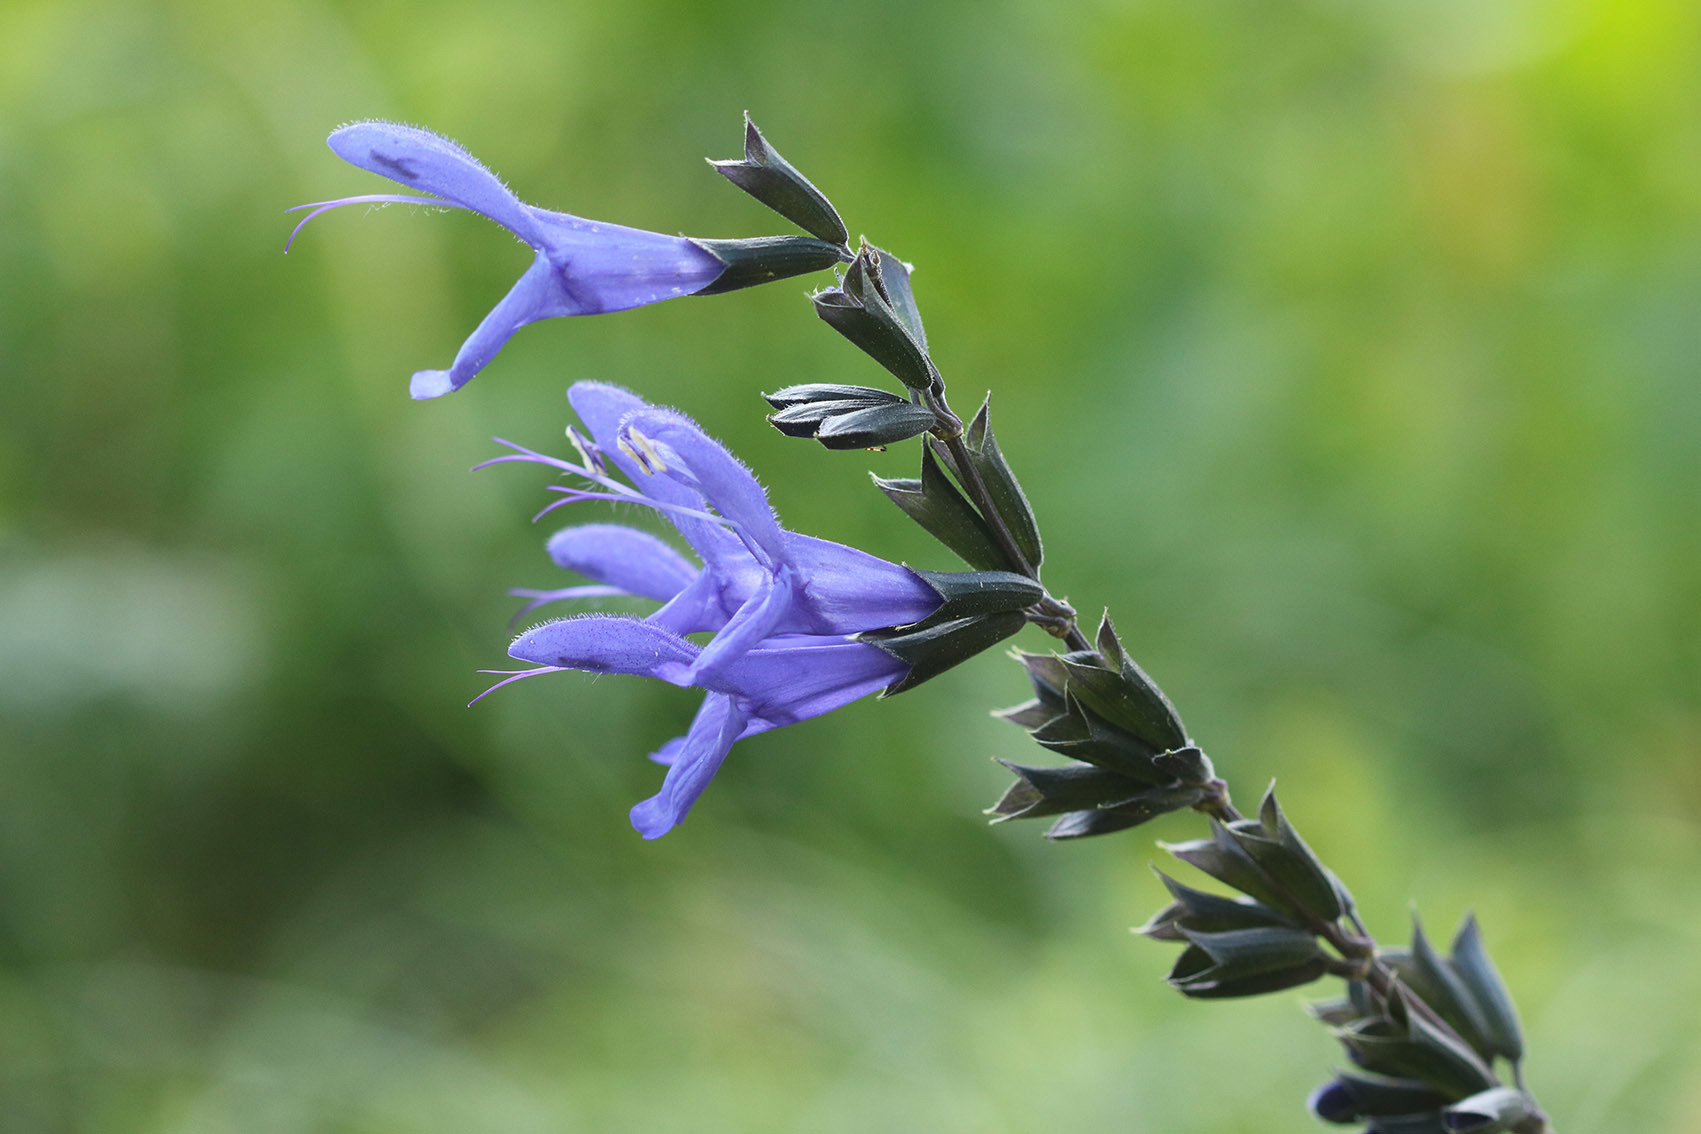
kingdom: Plantae
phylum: Tracheophyta
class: Magnoliopsida
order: Lamiales
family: Lamiaceae
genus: Salvia
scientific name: Salvia guaranitica
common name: Anise-scented sage
